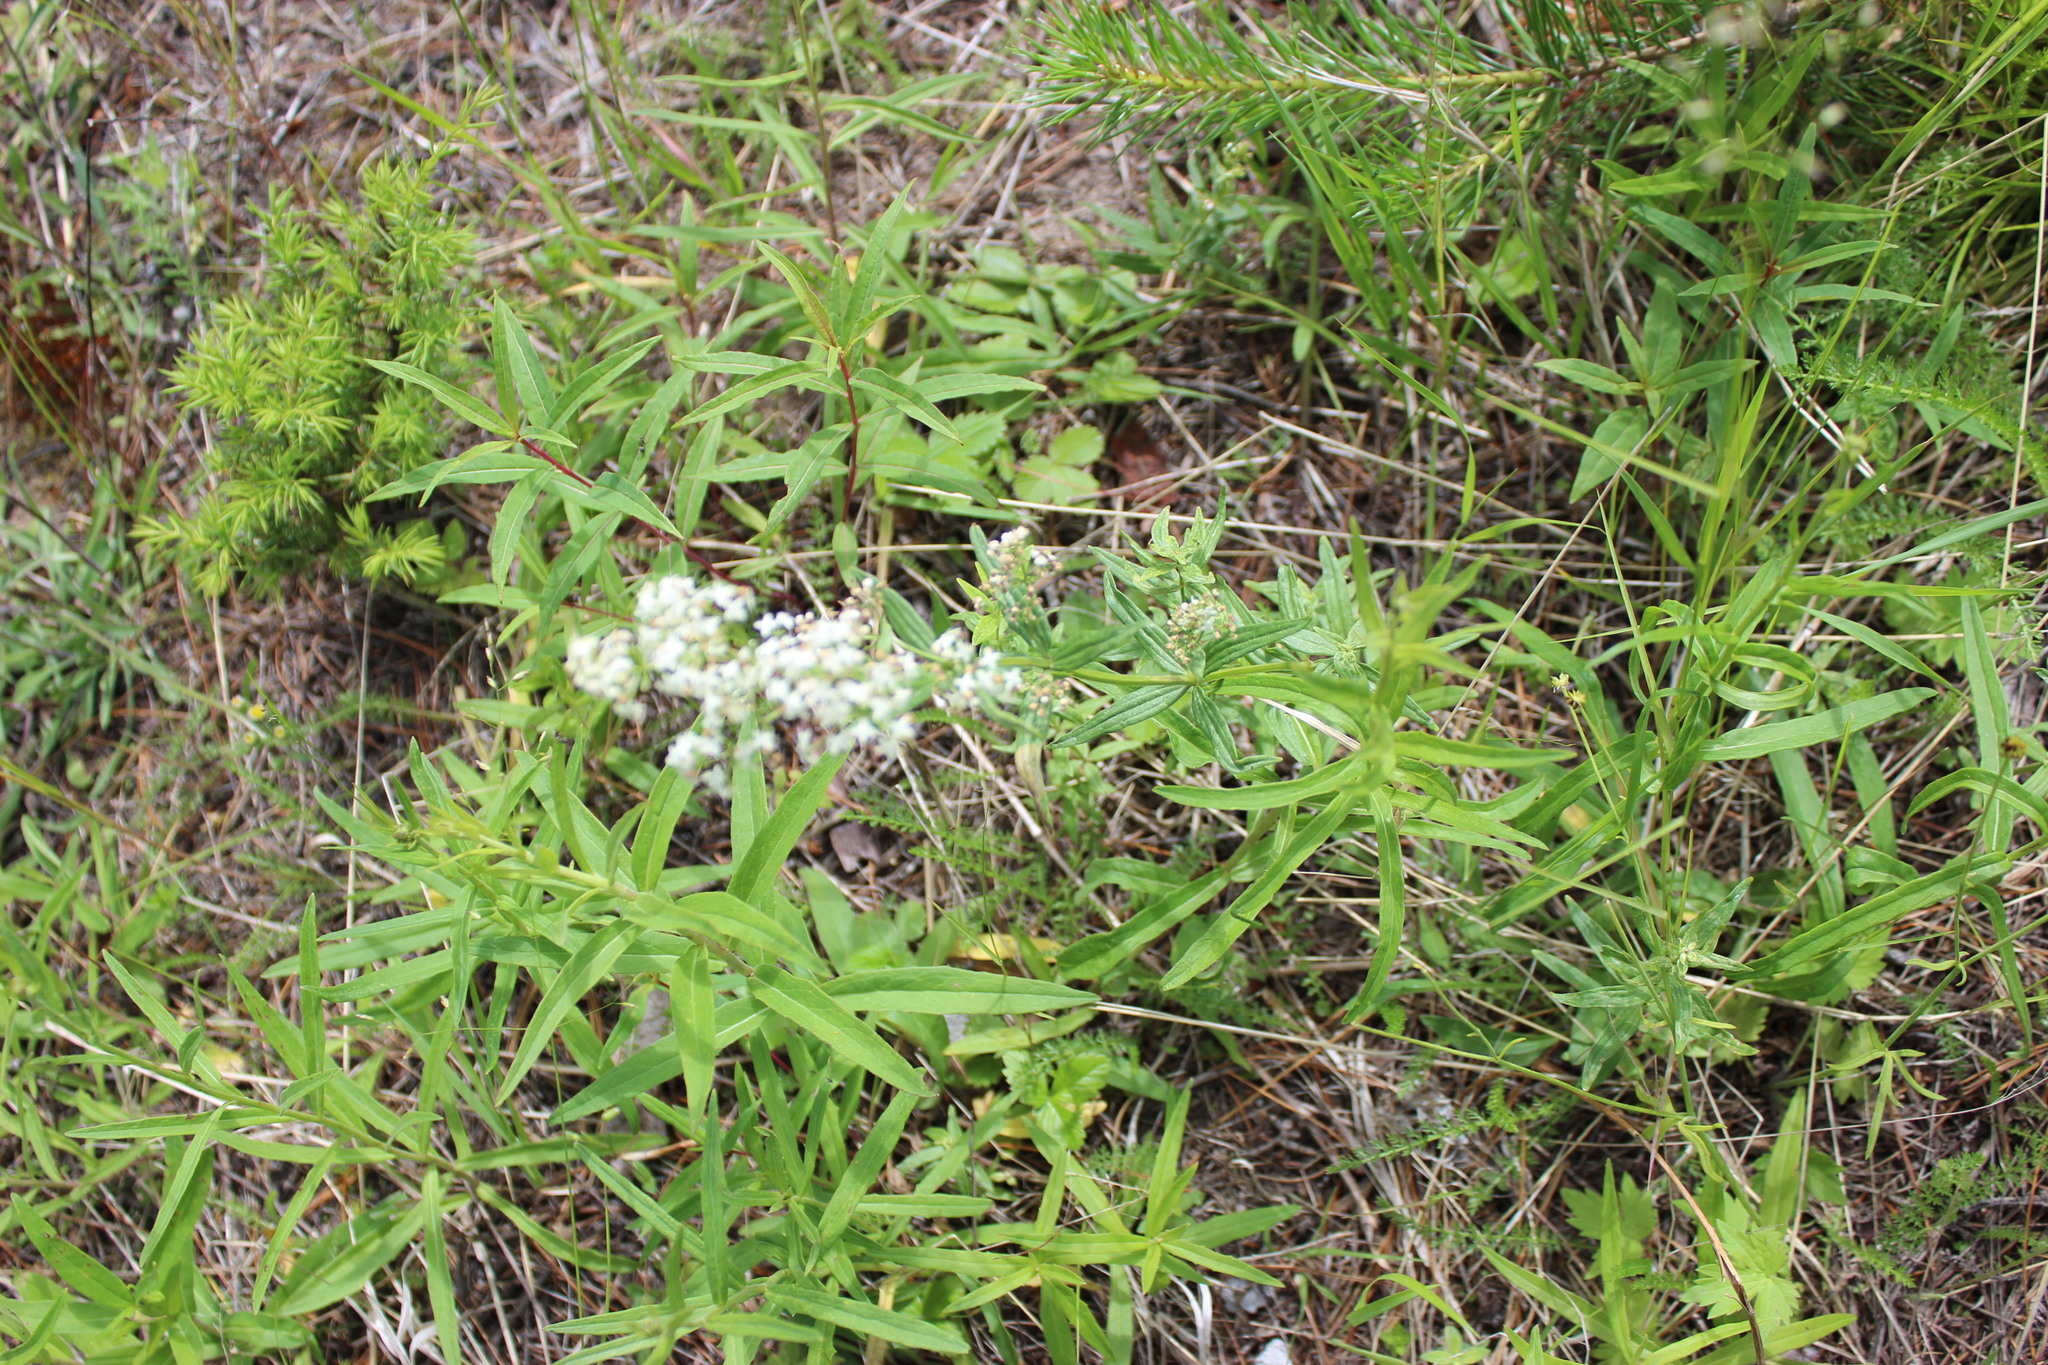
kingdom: Plantae
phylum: Tracheophyta
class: Magnoliopsida
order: Gentianales
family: Rubiaceae
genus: Galium
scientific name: Galium boreale
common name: Northern bedstraw
